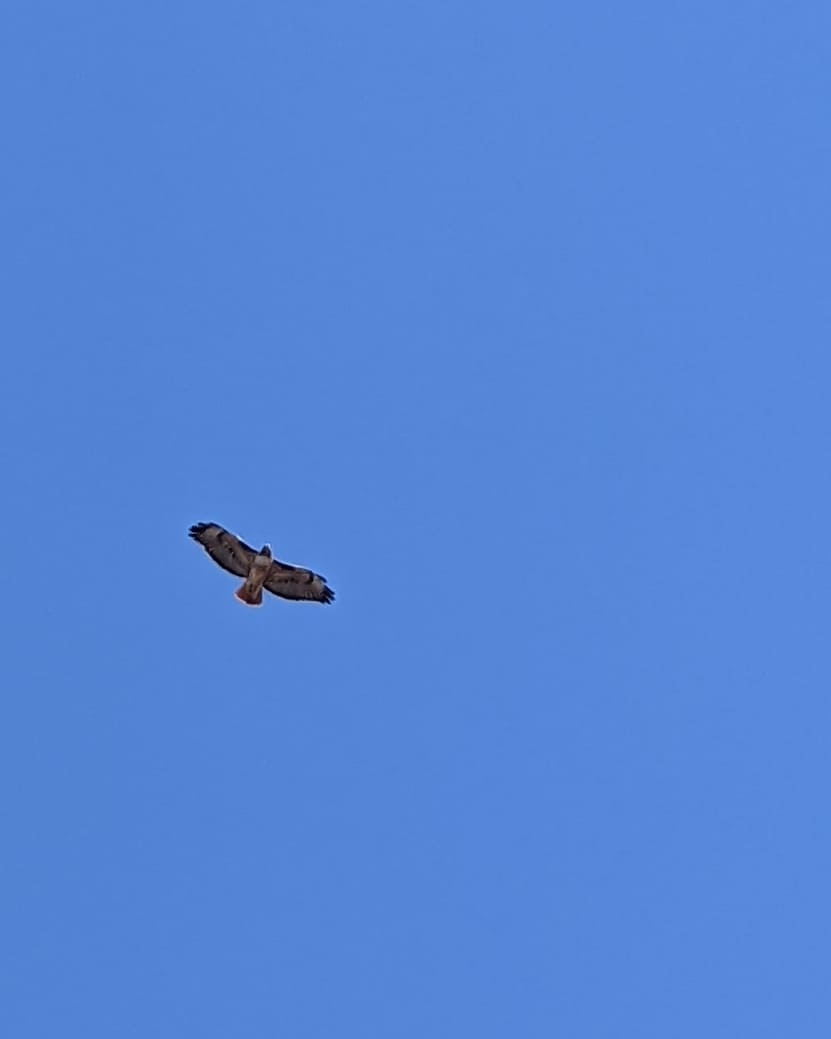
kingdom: Animalia
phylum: Chordata
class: Aves
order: Accipitriformes
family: Accipitridae
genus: Buteo
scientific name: Buteo jamaicensis
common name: Red-tailed hawk
